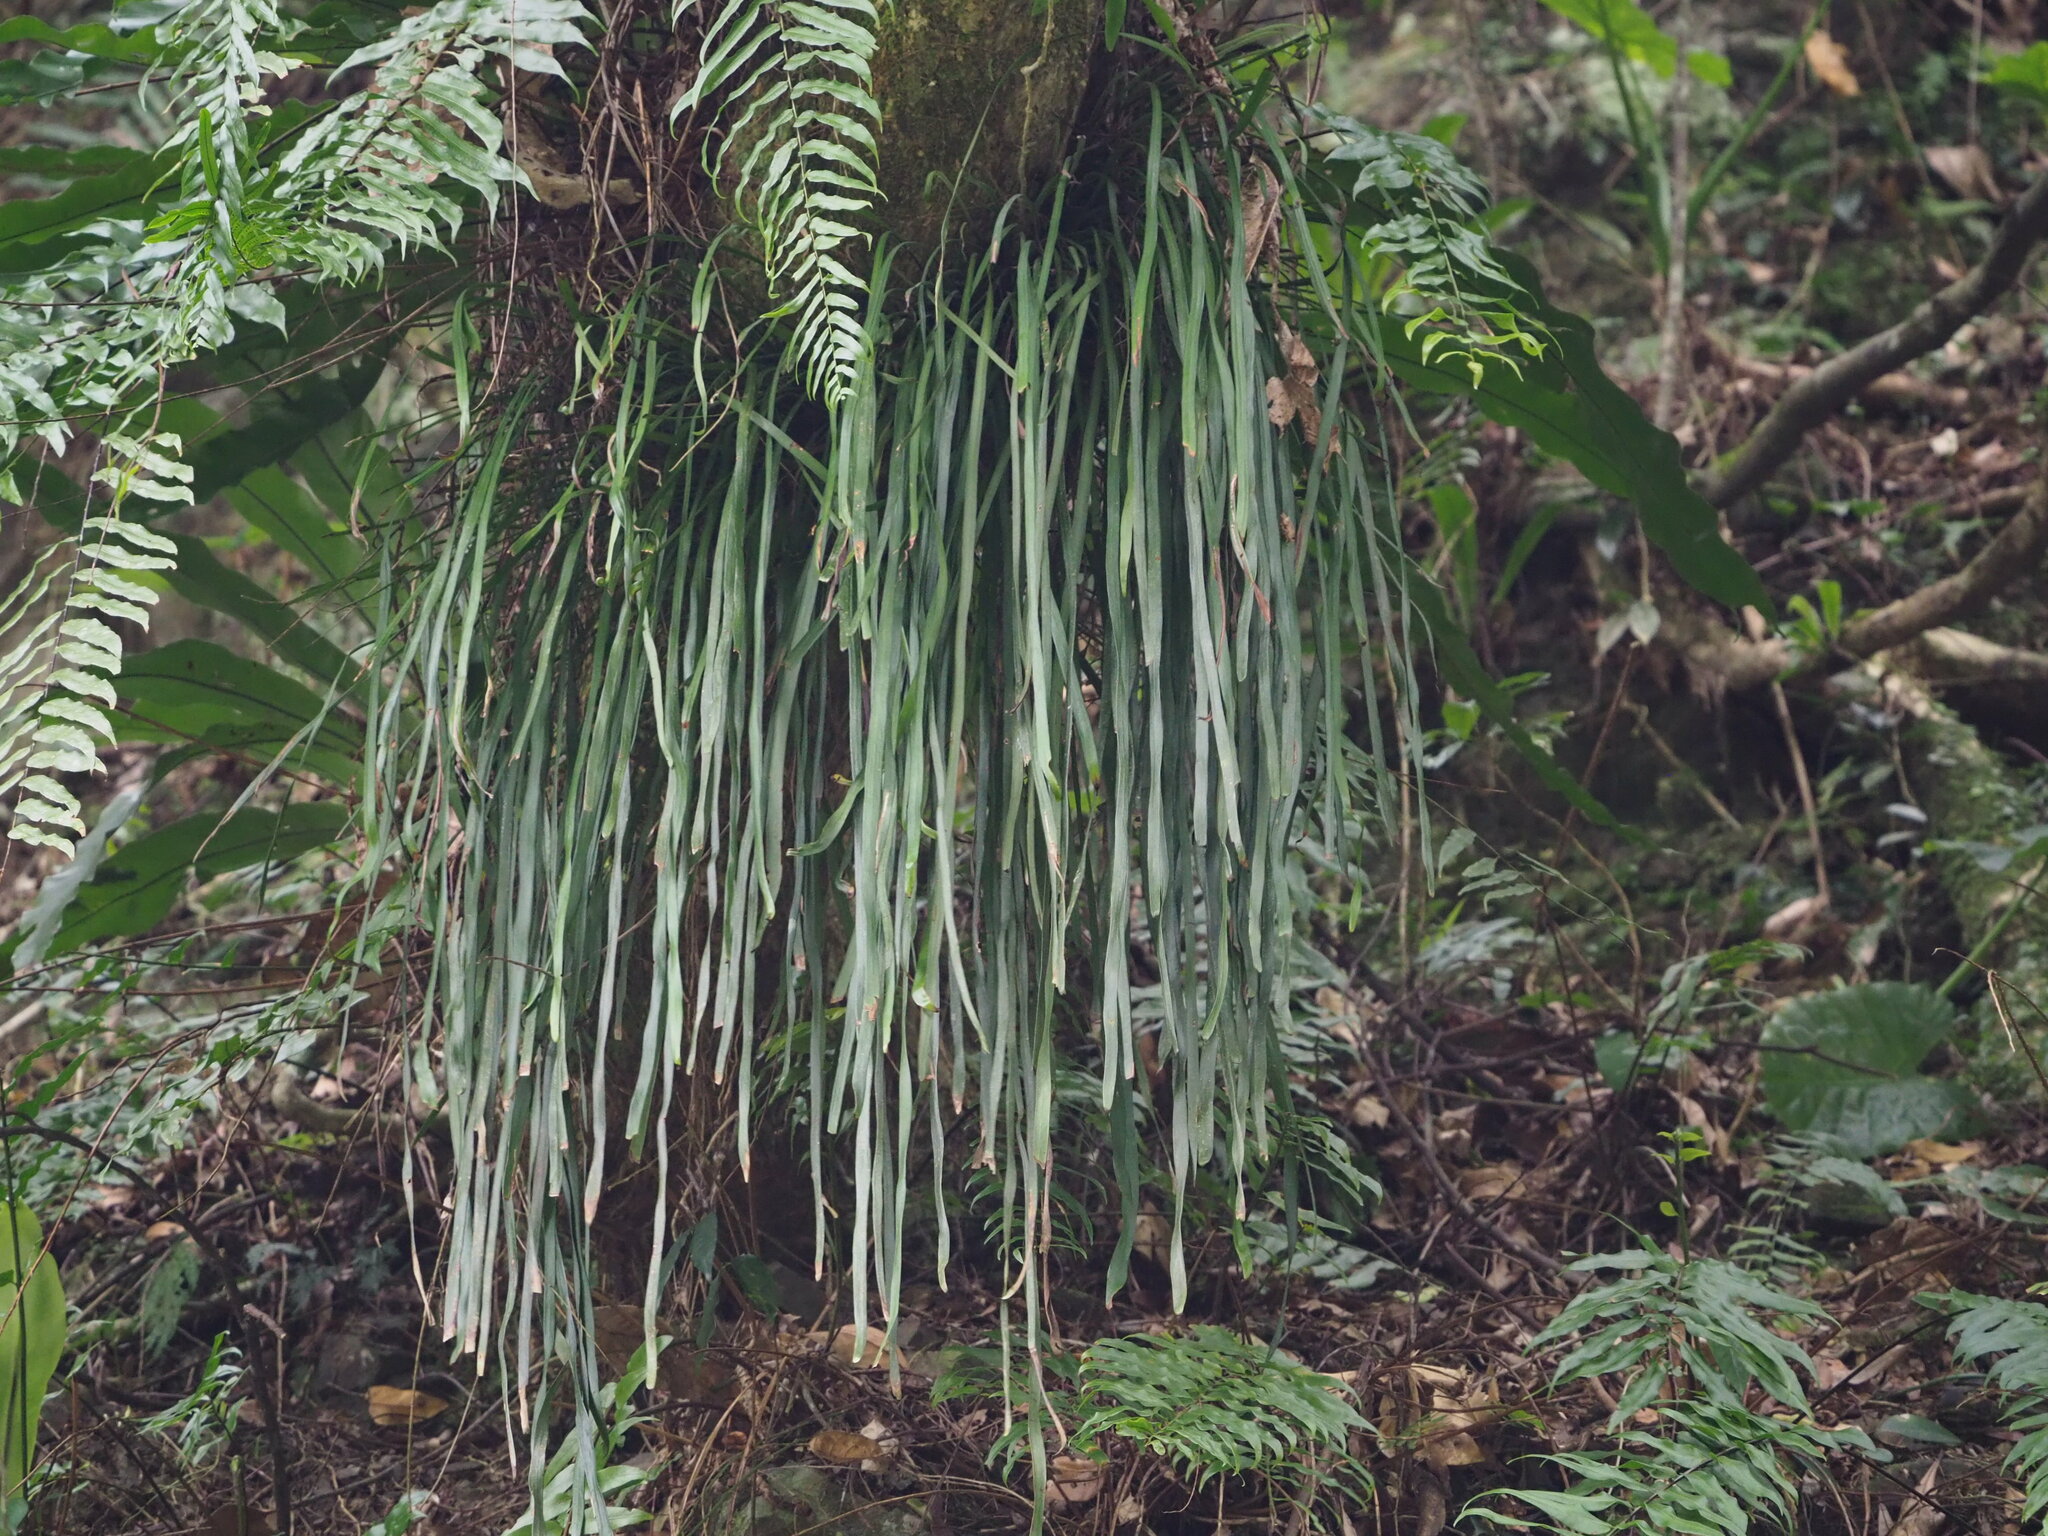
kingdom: Plantae
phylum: Tracheophyta
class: Polypodiopsida
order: Polypodiales
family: Pteridaceae
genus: Haplopteris
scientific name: Haplopteris elongata
